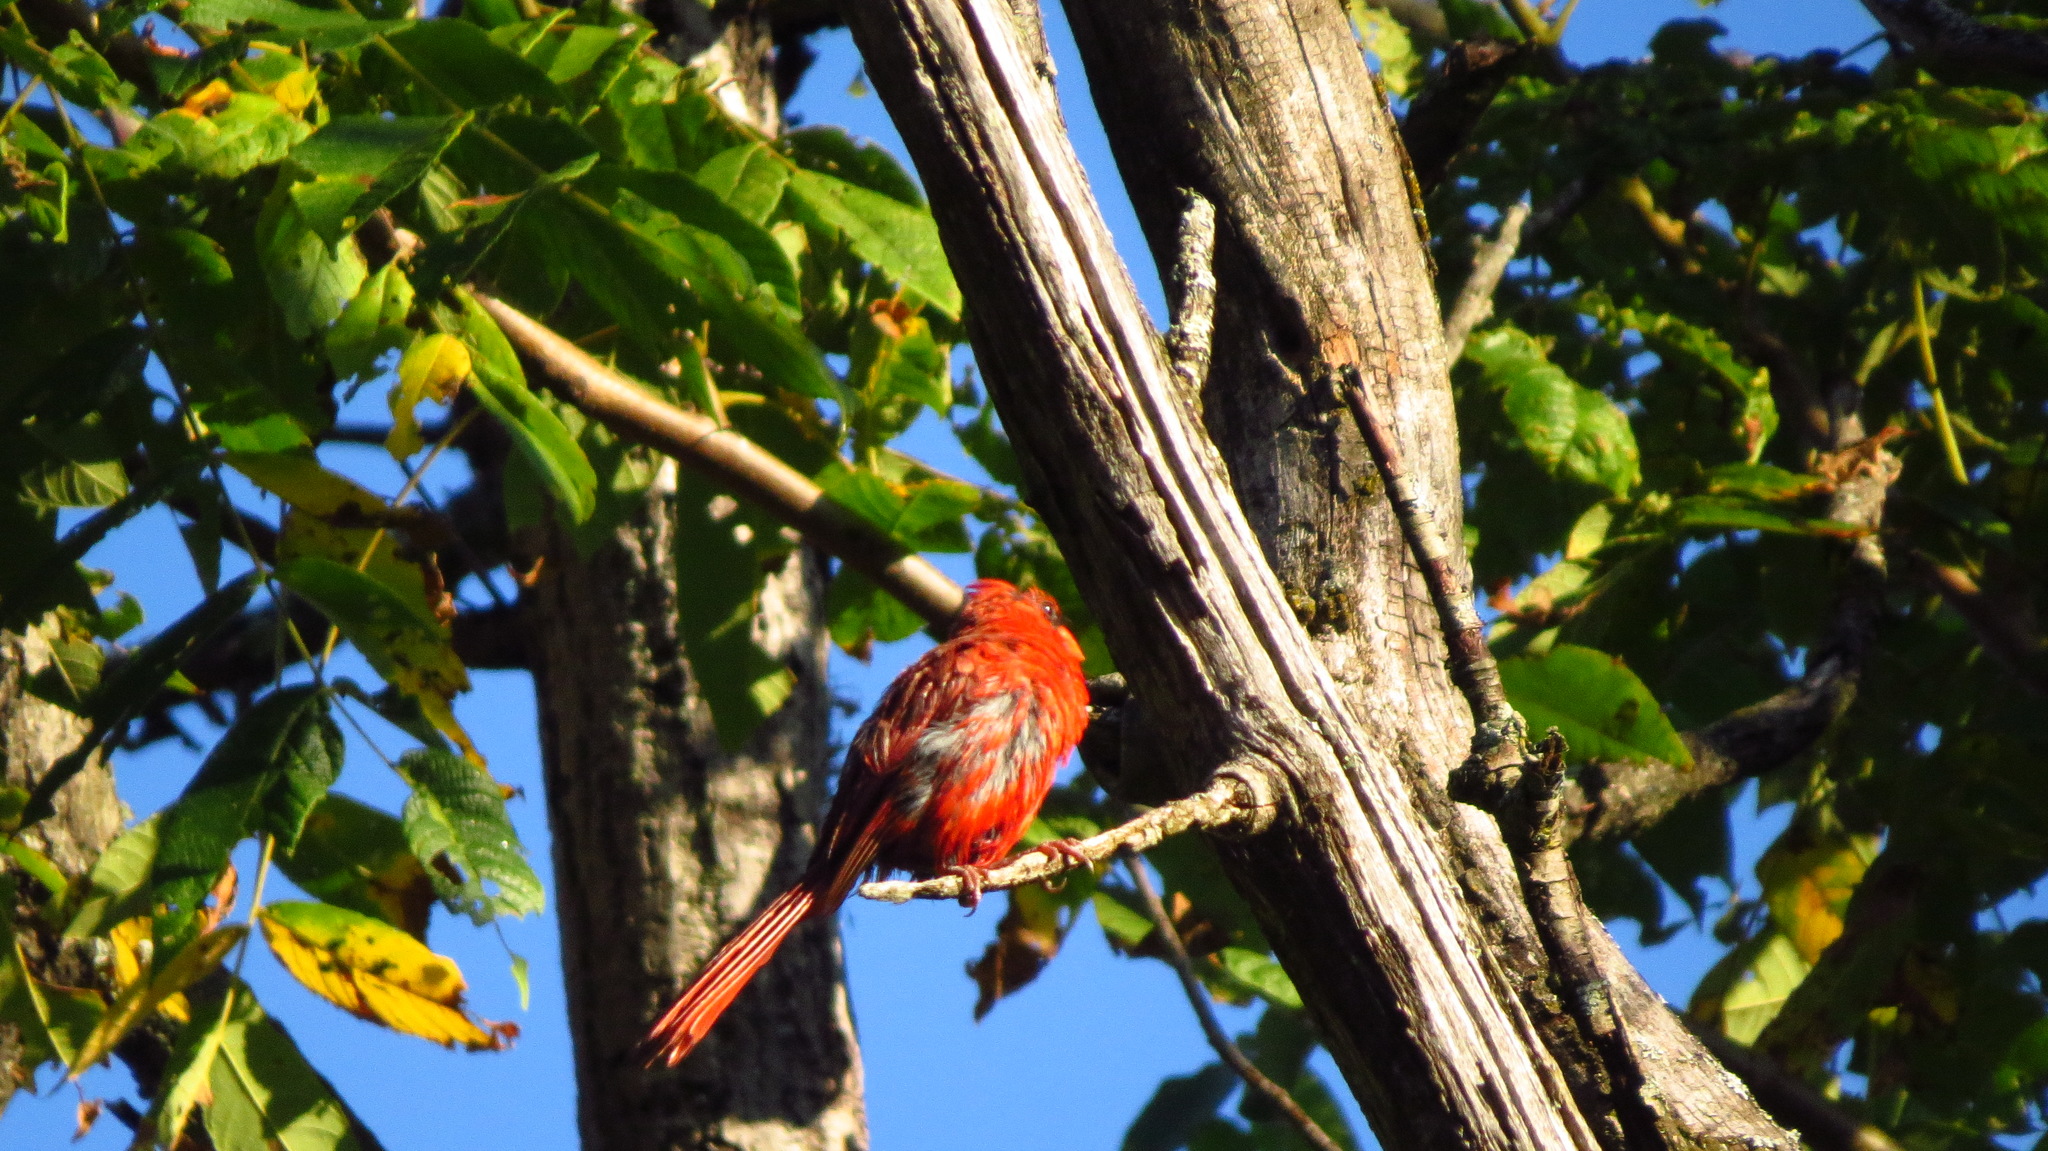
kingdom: Animalia
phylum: Chordata
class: Aves
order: Passeriformes
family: Cardinalidae
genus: Cardinalis
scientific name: Cardinalis cardinalis
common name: Northern cardinal
